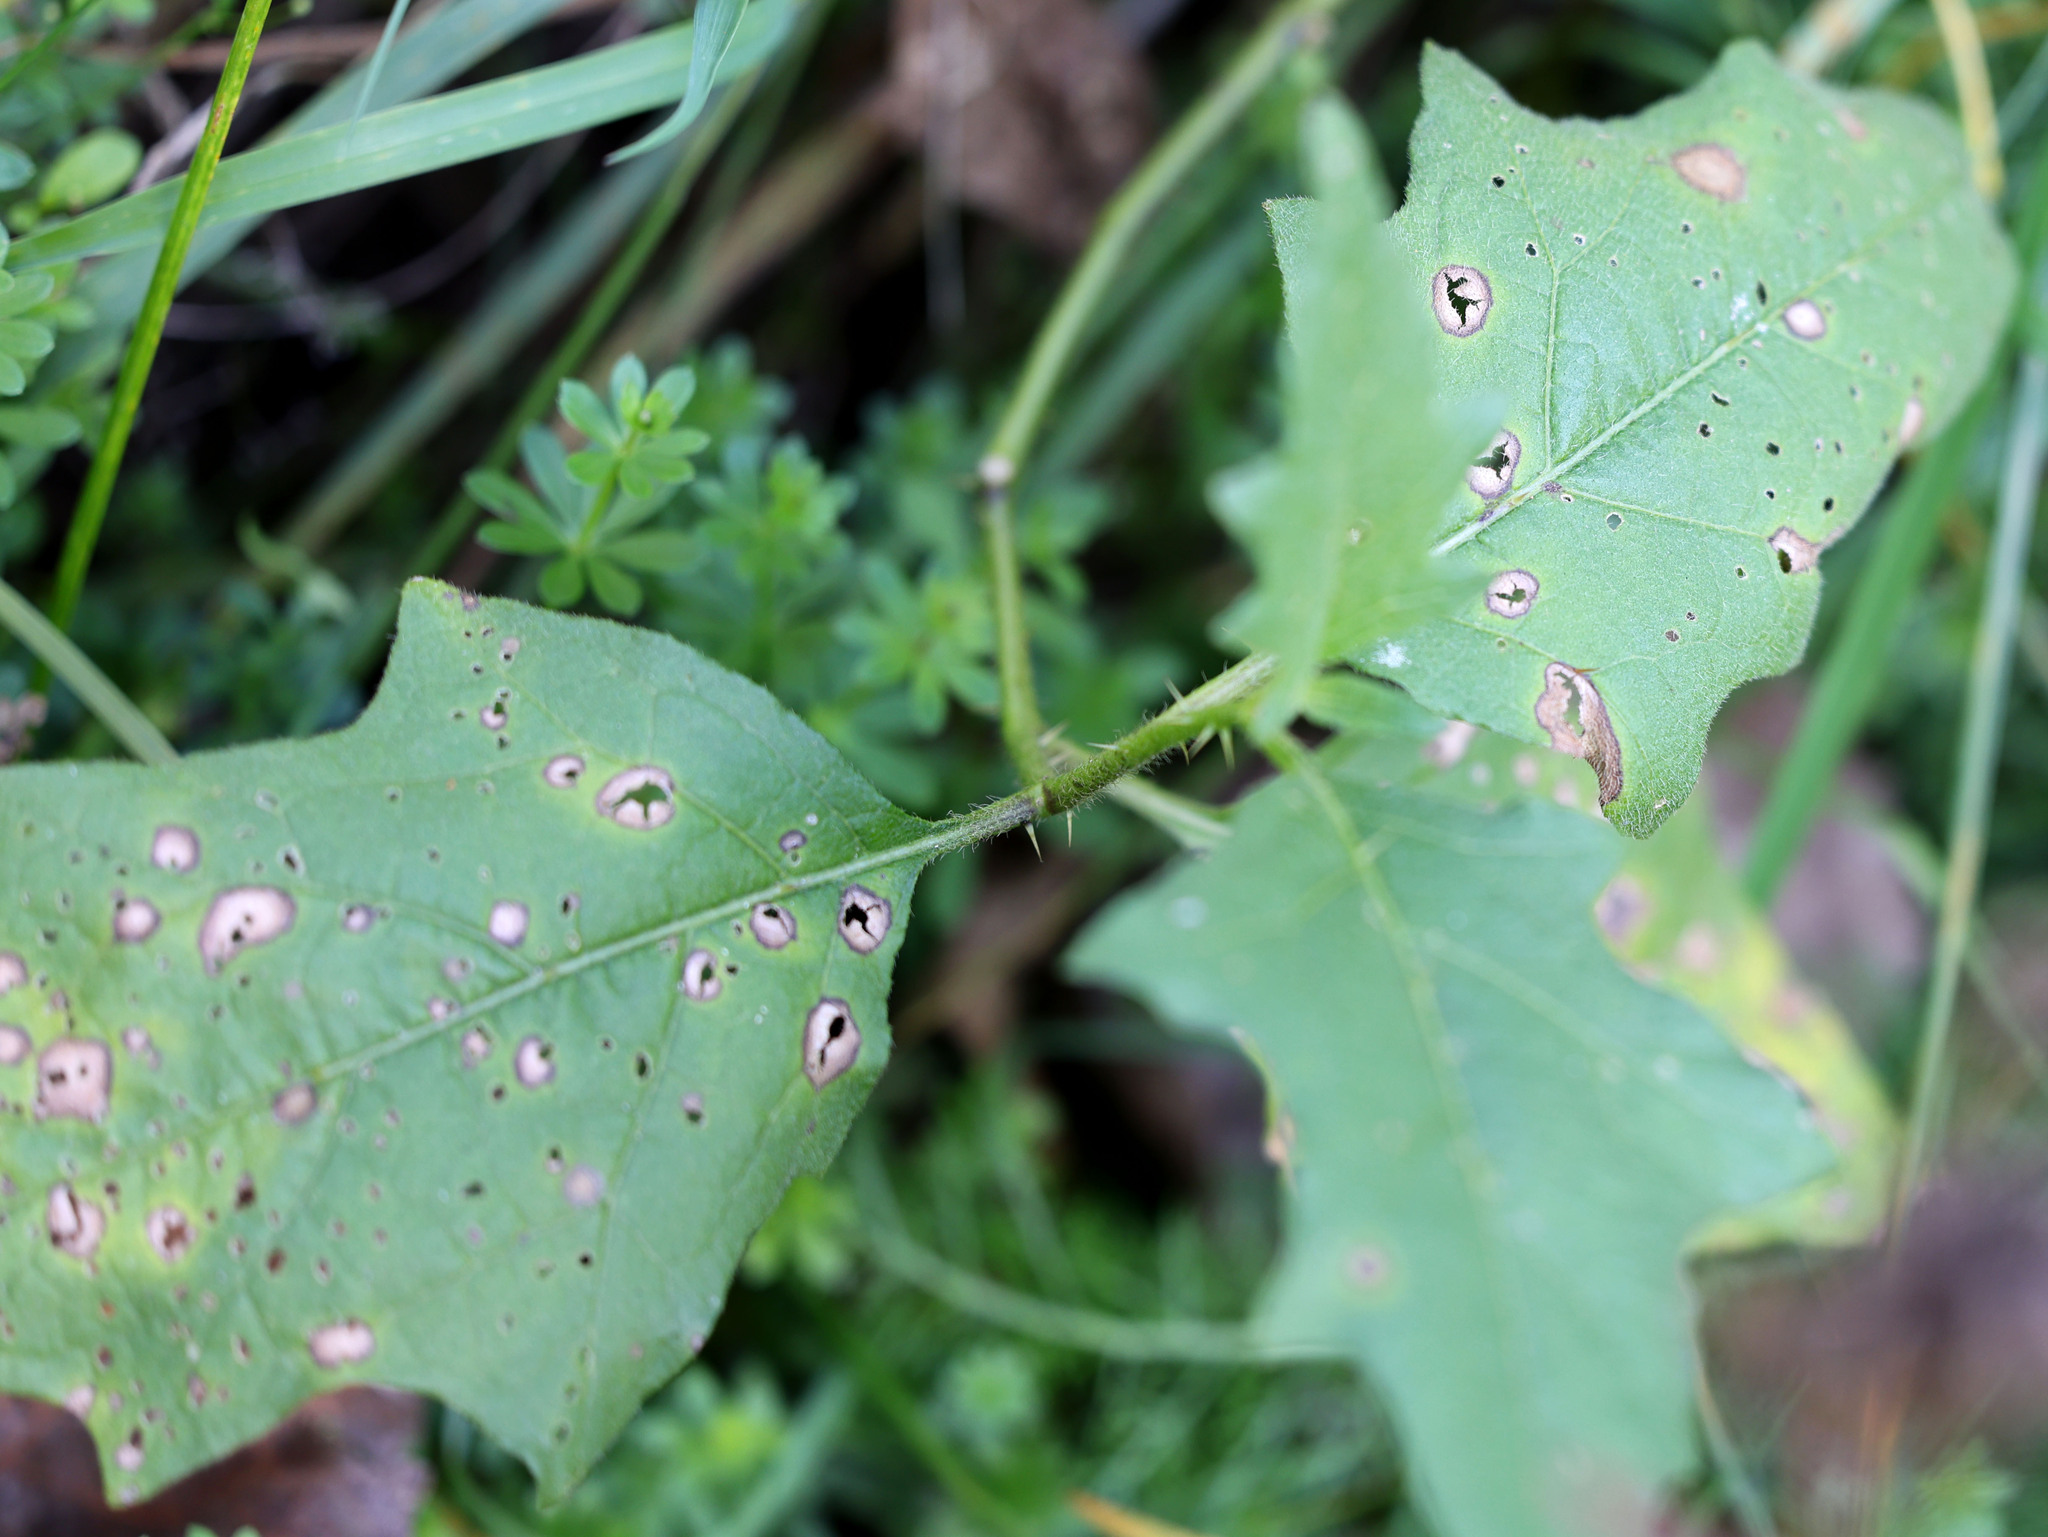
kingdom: Plantae
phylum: Tracheophyta
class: Magnoliopsida
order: Solanales
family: Solanaceae
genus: Solanum
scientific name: Solanum carolinense
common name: Horse-nettle
